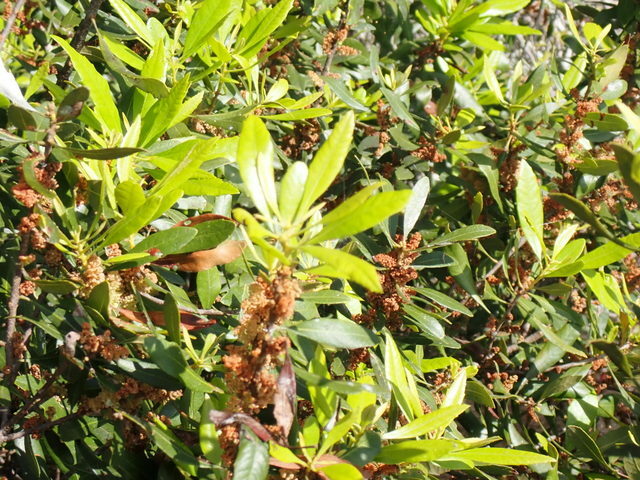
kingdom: Plantae
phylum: Tracheophyta
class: Magnoliopsida
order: Fagales
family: Myricaceae
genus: Morella
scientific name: Morella cerifera
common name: Wax myrtle
